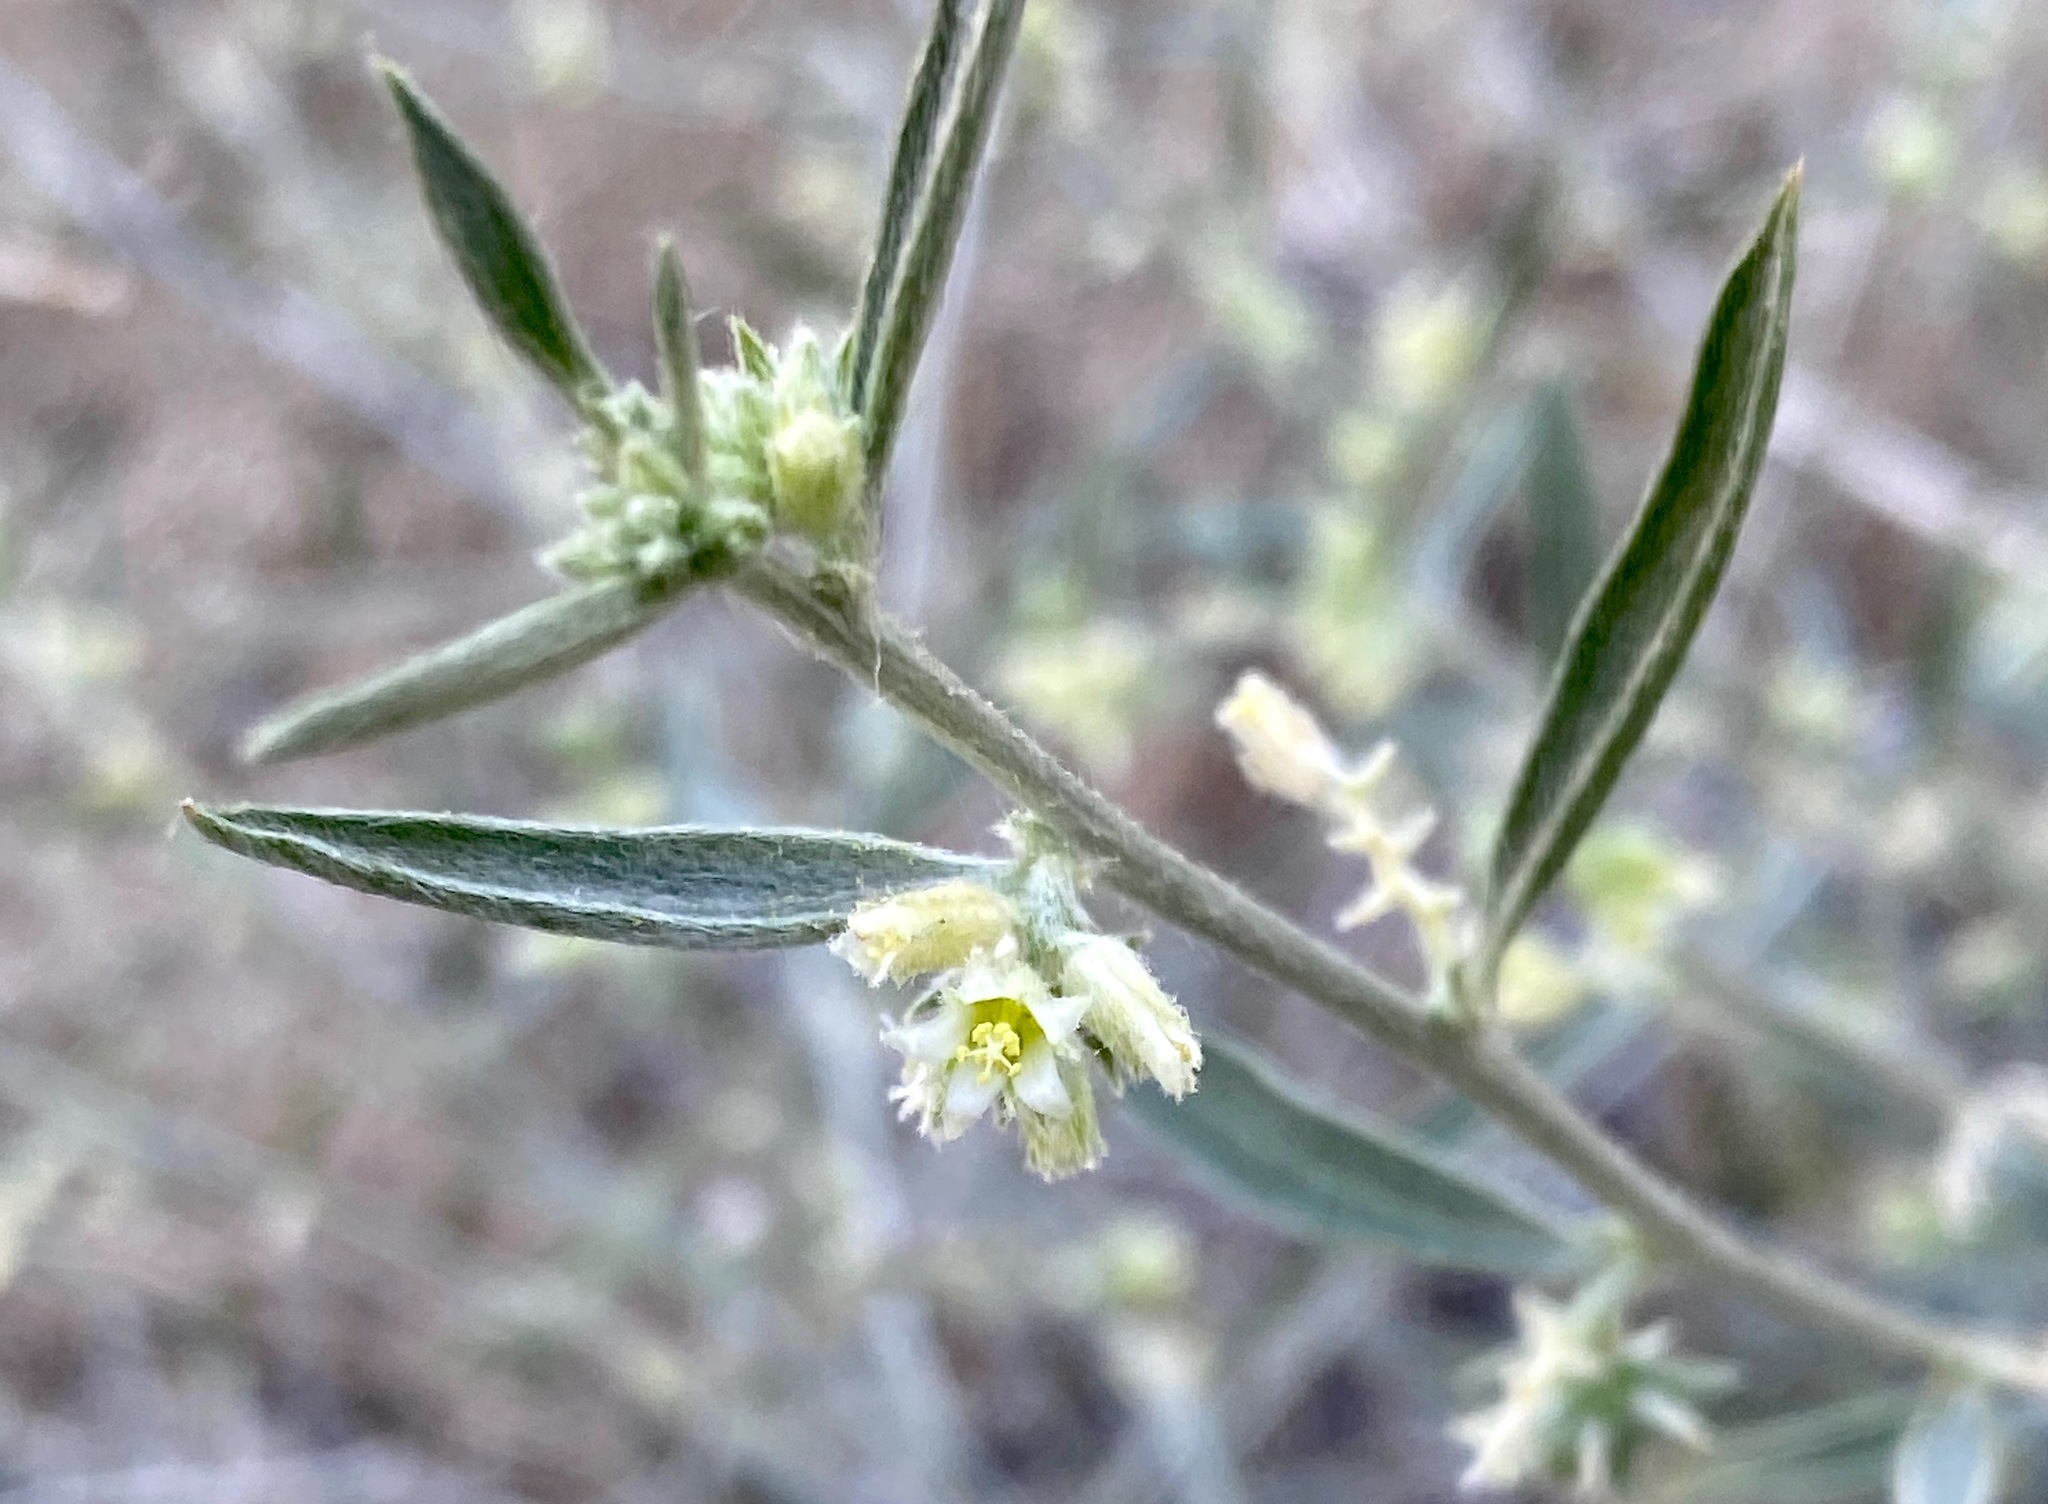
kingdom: Plantae
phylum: Tracheophyta
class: Magnoliopsida
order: Malpighiales
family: Euphorbiaceae
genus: Ditaxis
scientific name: Ditaxis lanceolata
